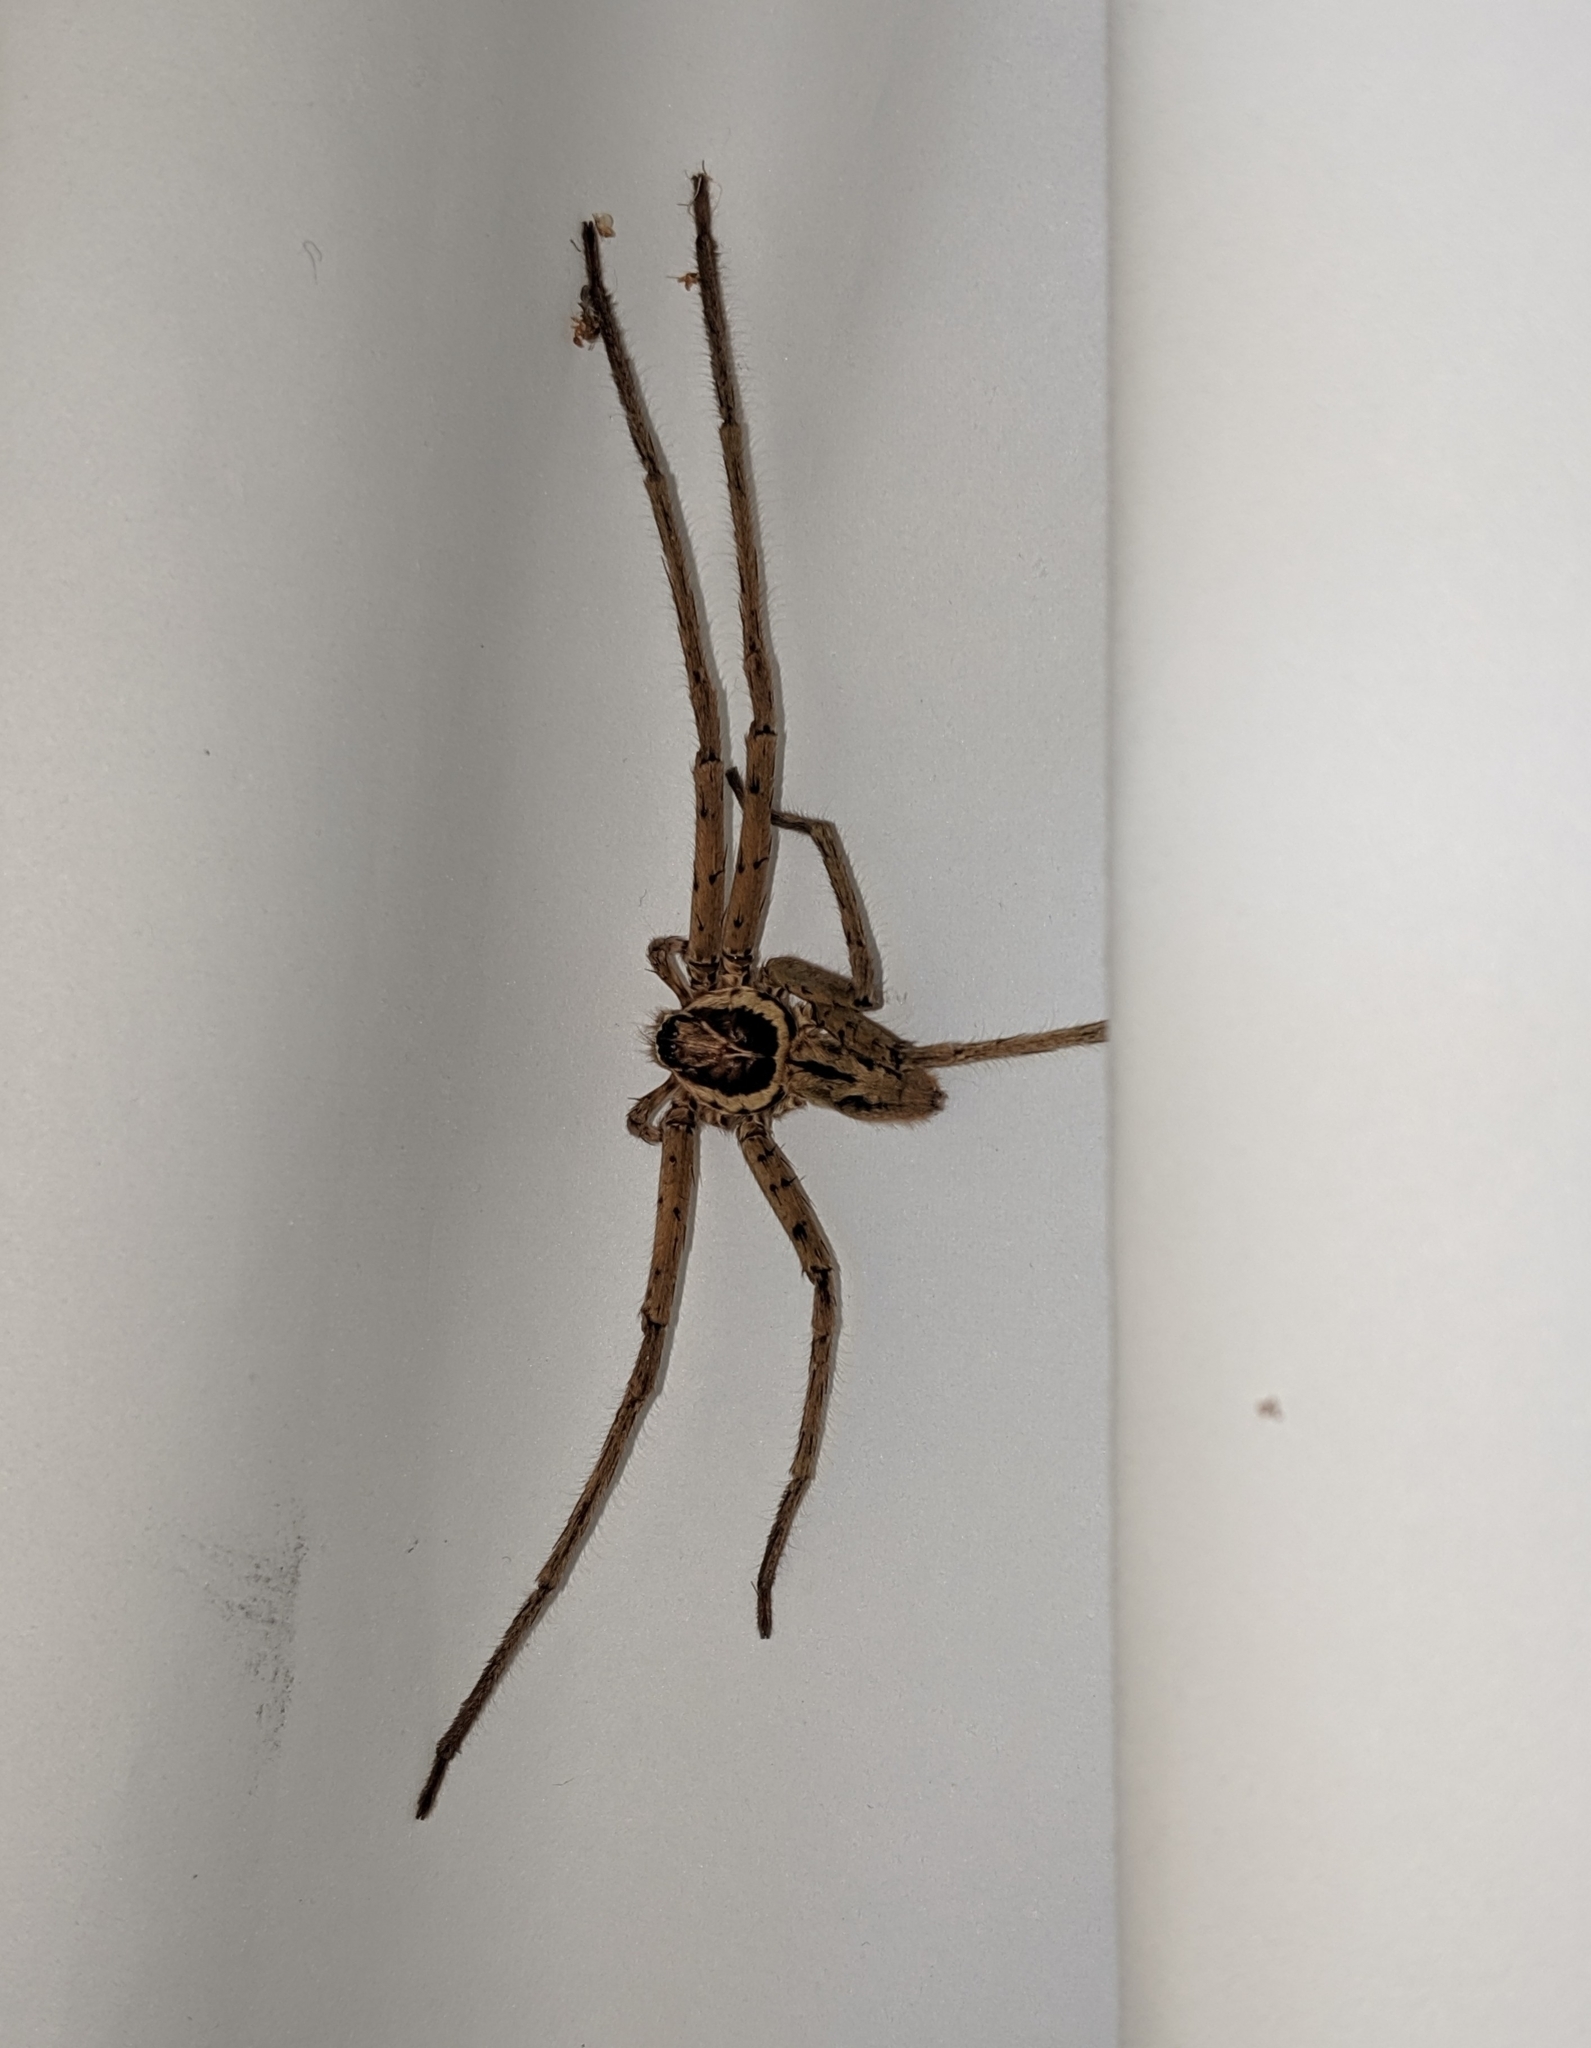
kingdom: Animalia
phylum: Arthropoda
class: Arachnida
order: Araneae
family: Sparassidae
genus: Heteropoda
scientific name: Heteropoda venatoria
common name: Huntsman spider
